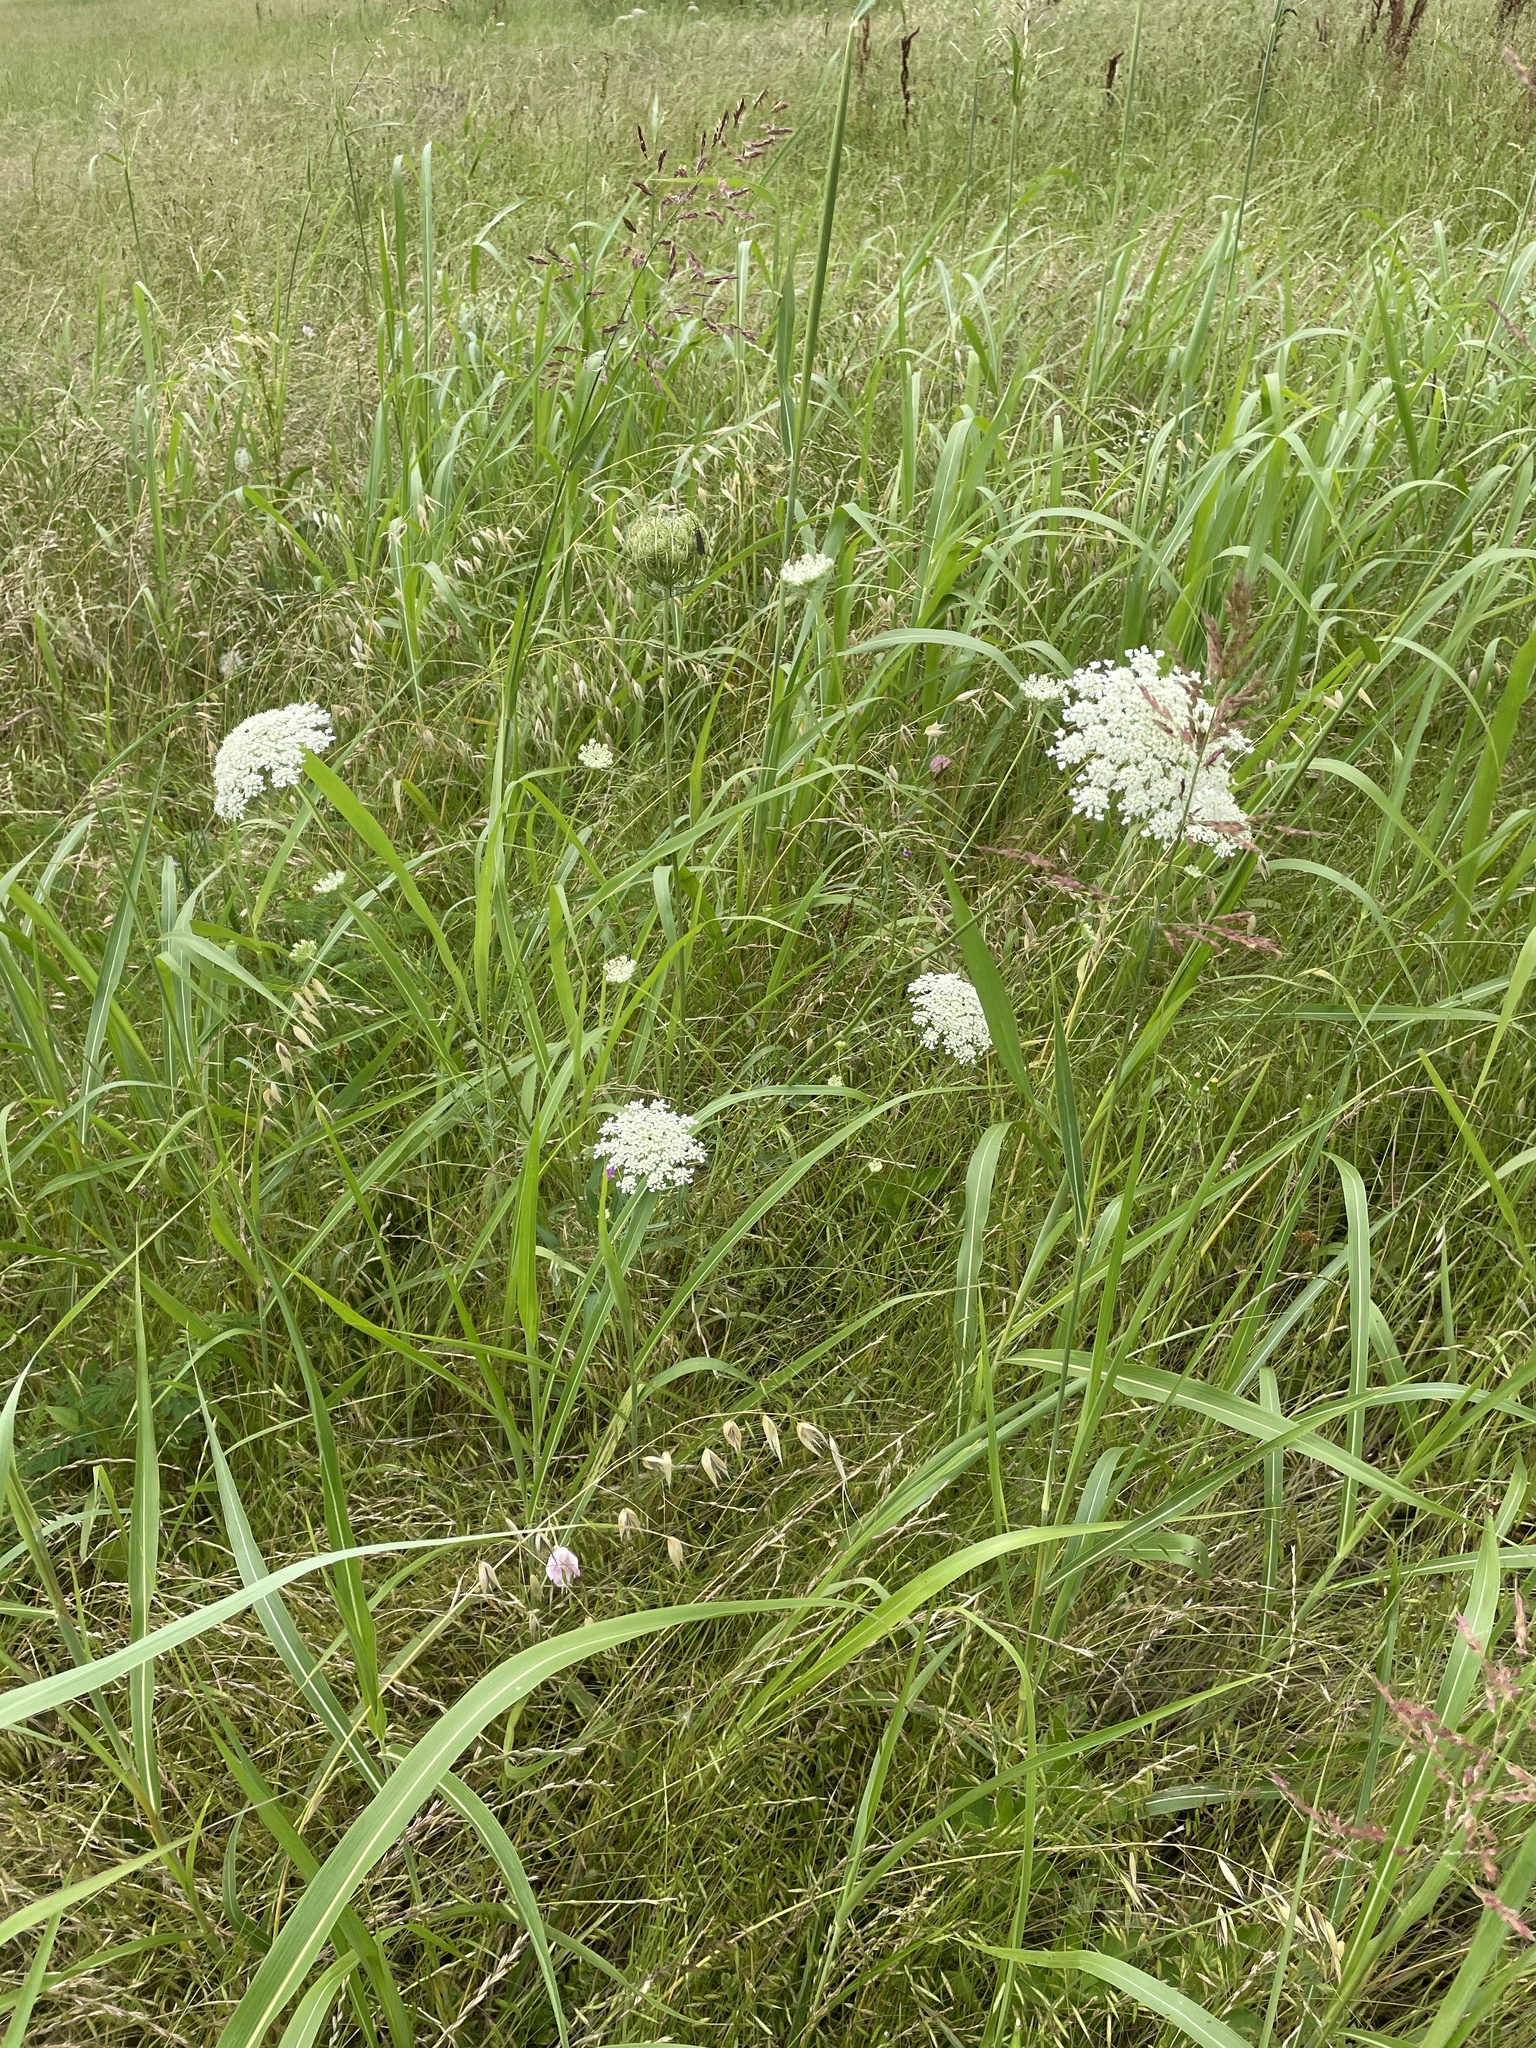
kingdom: Plantae
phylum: Tracheophyta
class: Magnoliopsida
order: Apiales
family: Apiaceae
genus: Daucus
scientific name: Daucus carota
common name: Wild carrot
